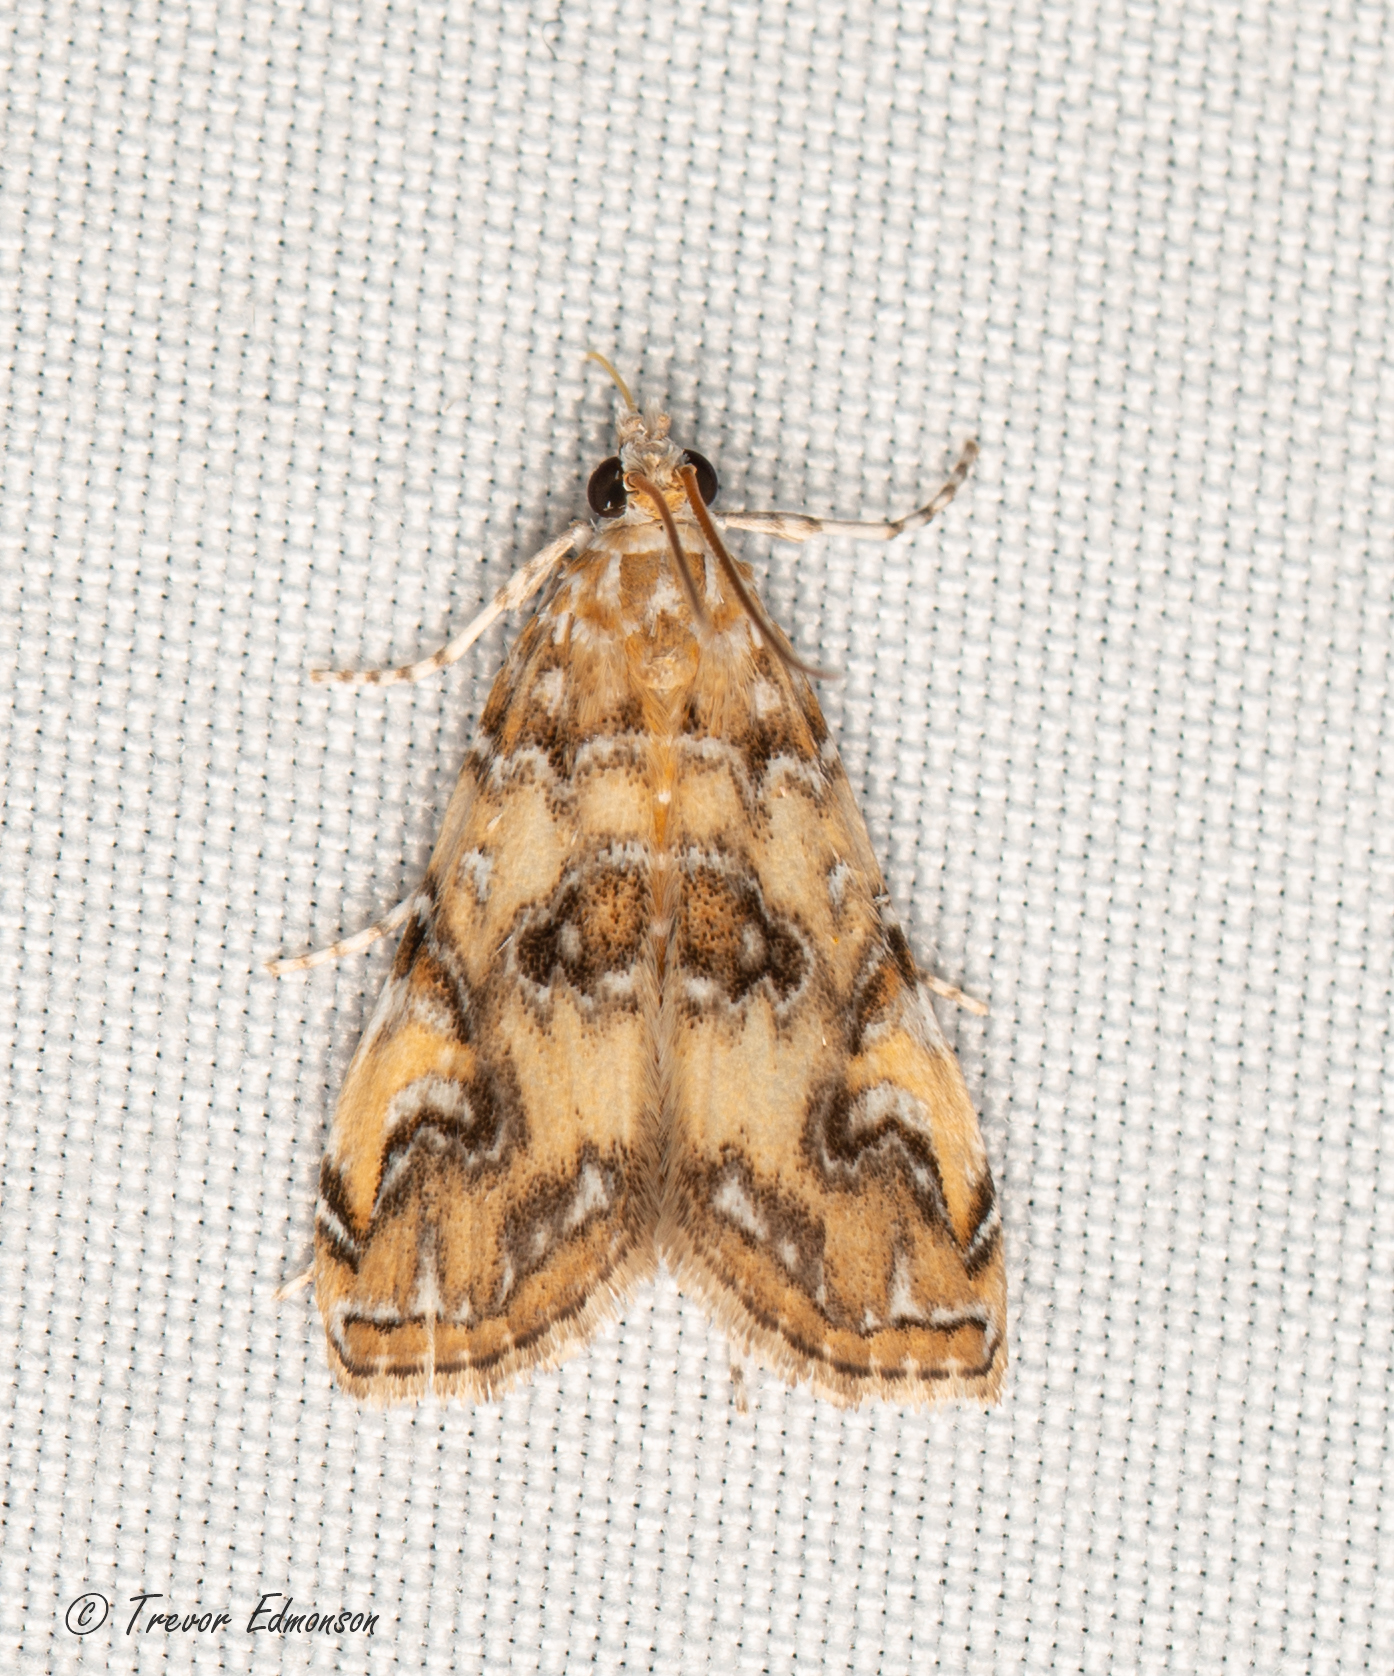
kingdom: Animalia
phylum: Arthropoda
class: Insecta
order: Lepidoptera
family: Crambidae
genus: Elophila
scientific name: Elophila gyralis
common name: Waterlily borer moth
